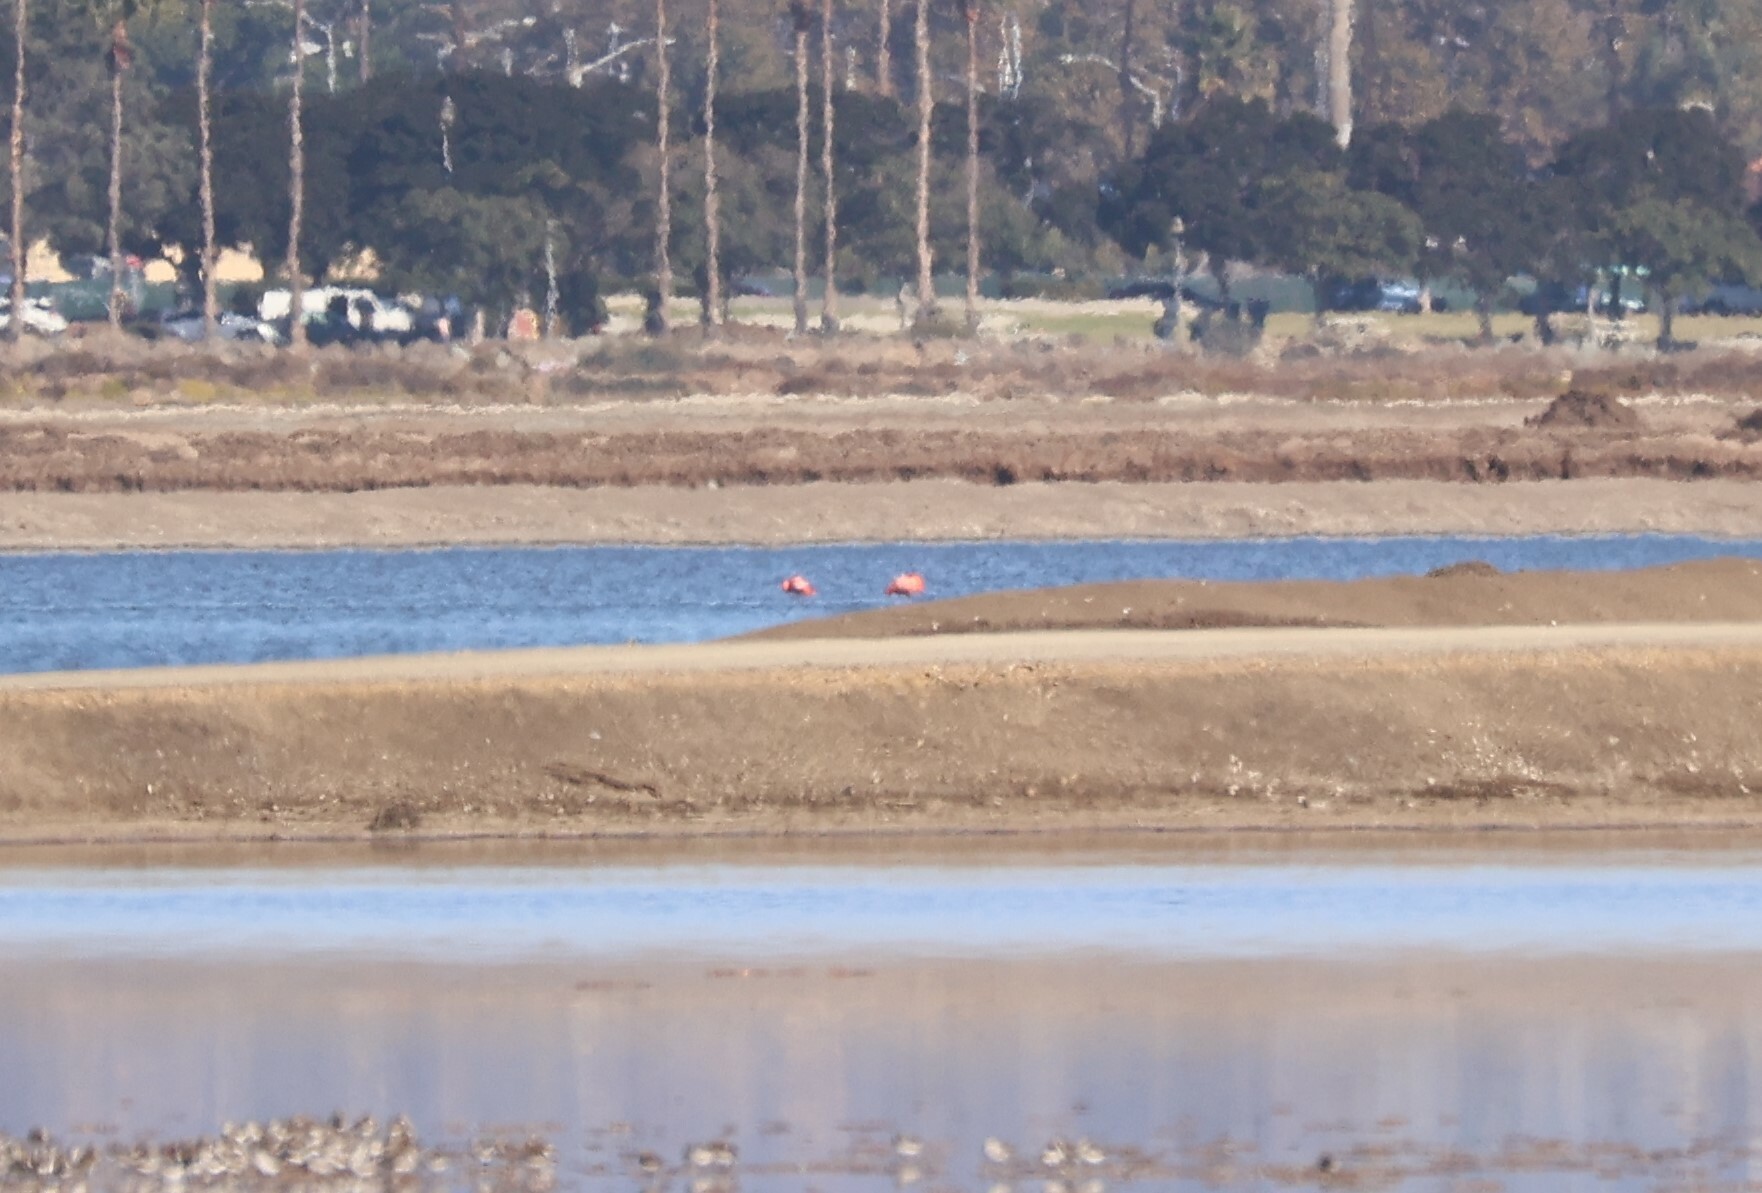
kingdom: Animalia
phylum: Chordata
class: Aves
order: Phoenicopteriformes
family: Phoenicopteridae
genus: Phoenicopterus
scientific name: Phoenicopterus ruber
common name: American flamingo
